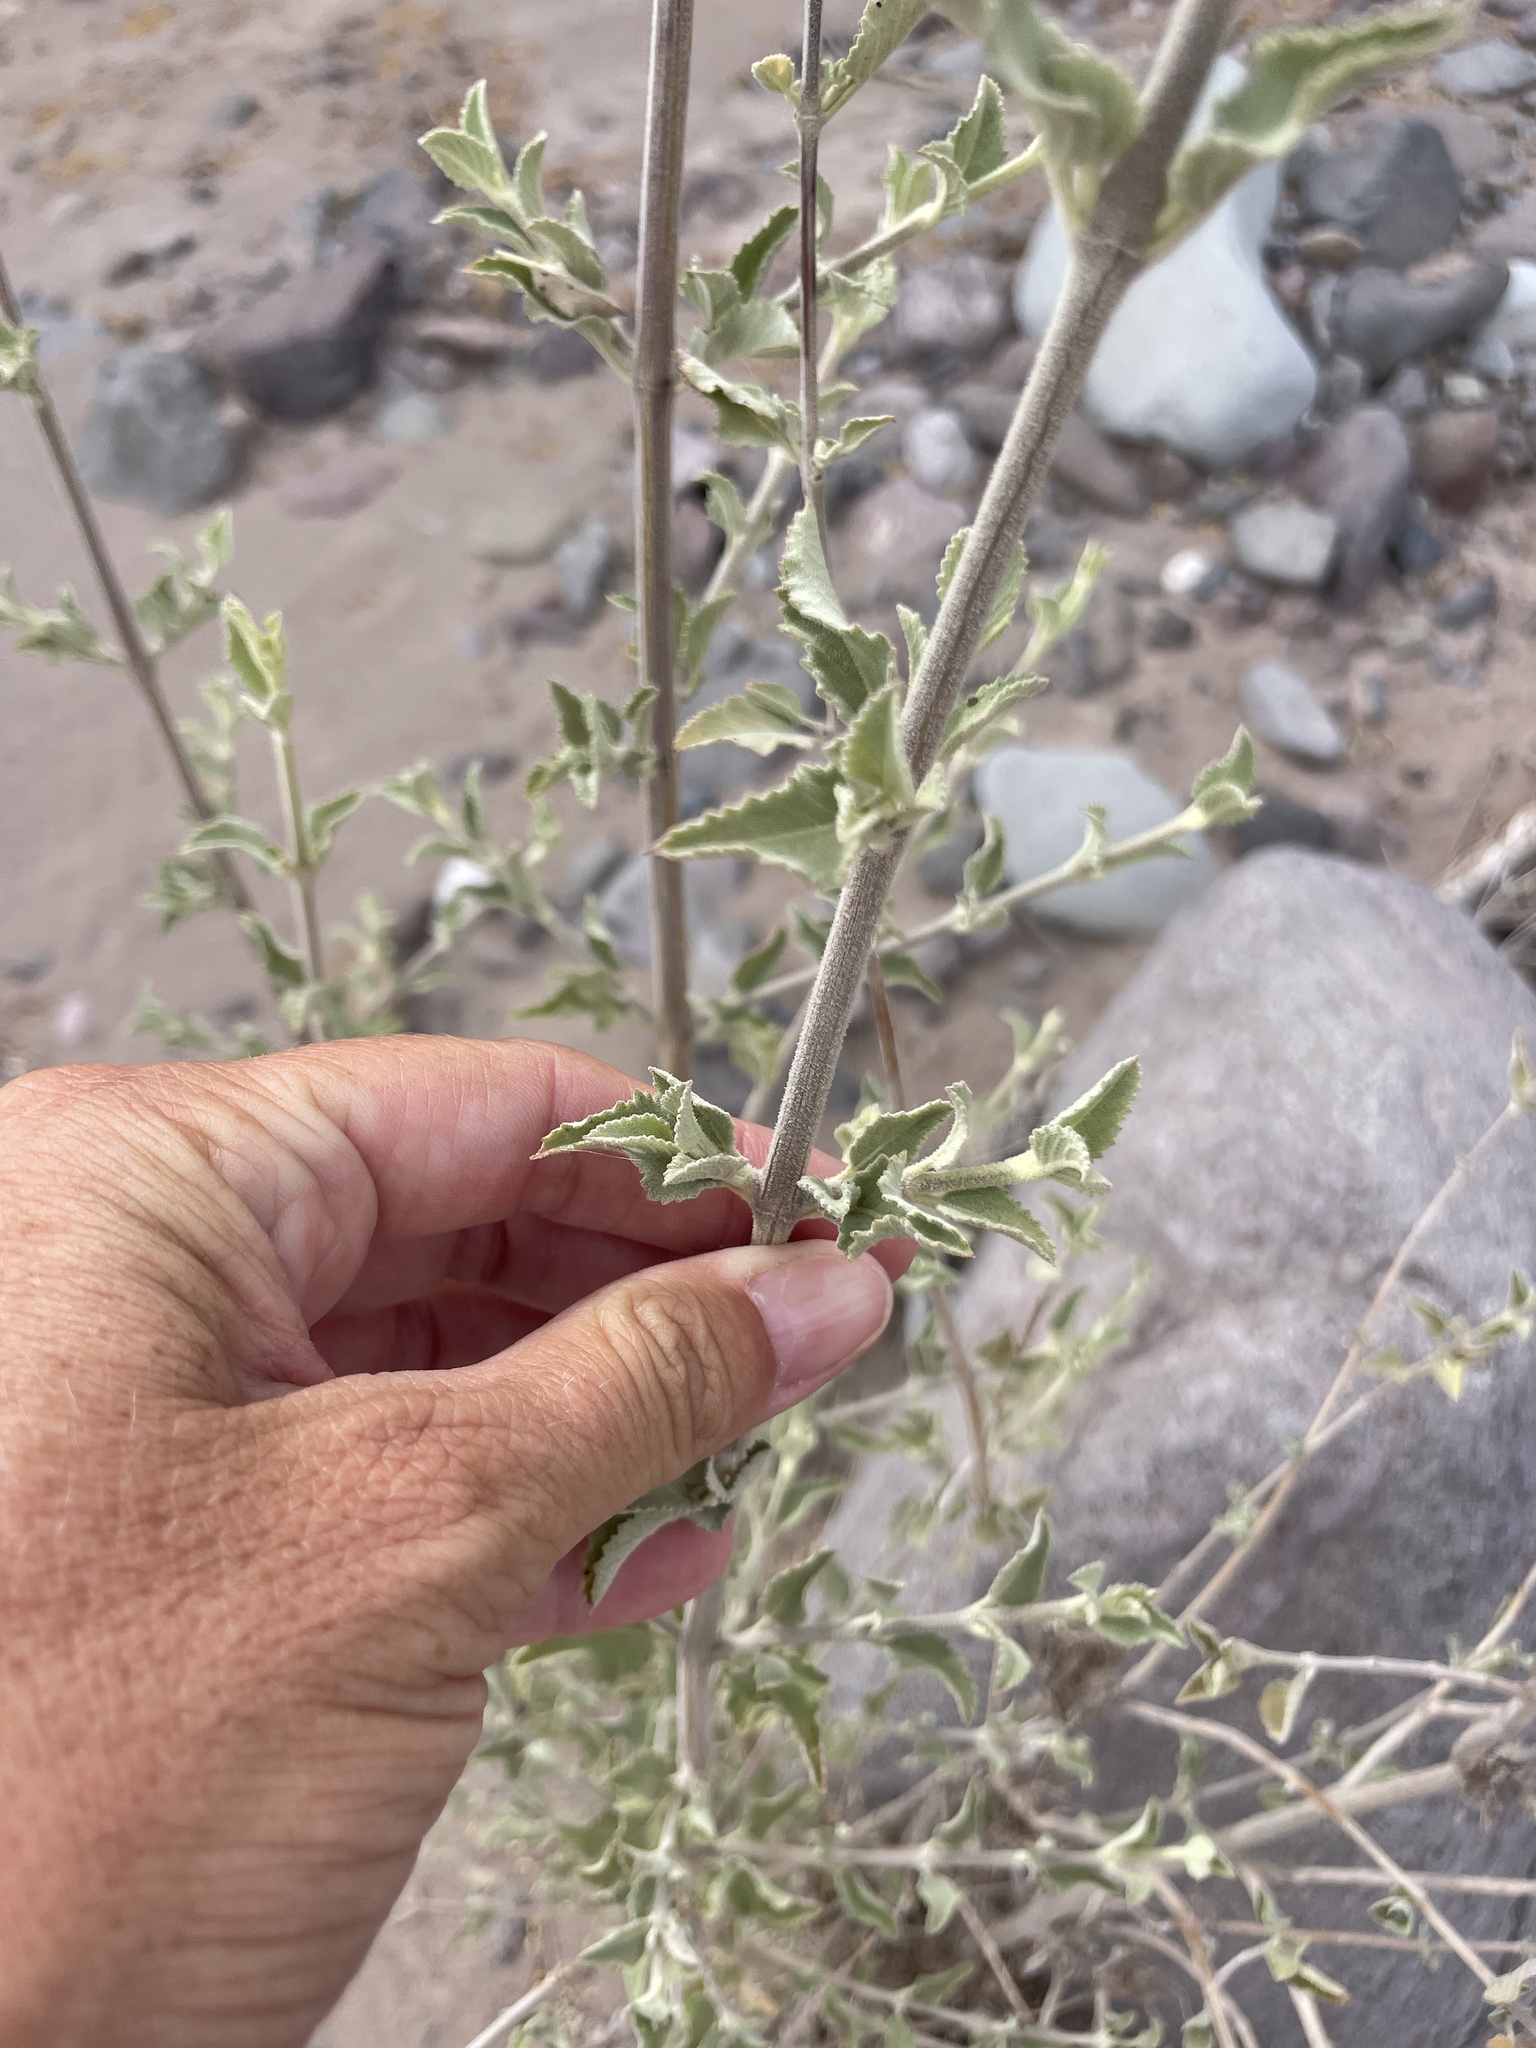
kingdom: Plantae
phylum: Tracheophyta
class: Magnoliopsida
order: Lamiales
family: Lamiaceae
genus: Condea
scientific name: Condea emoryi
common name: Chia
